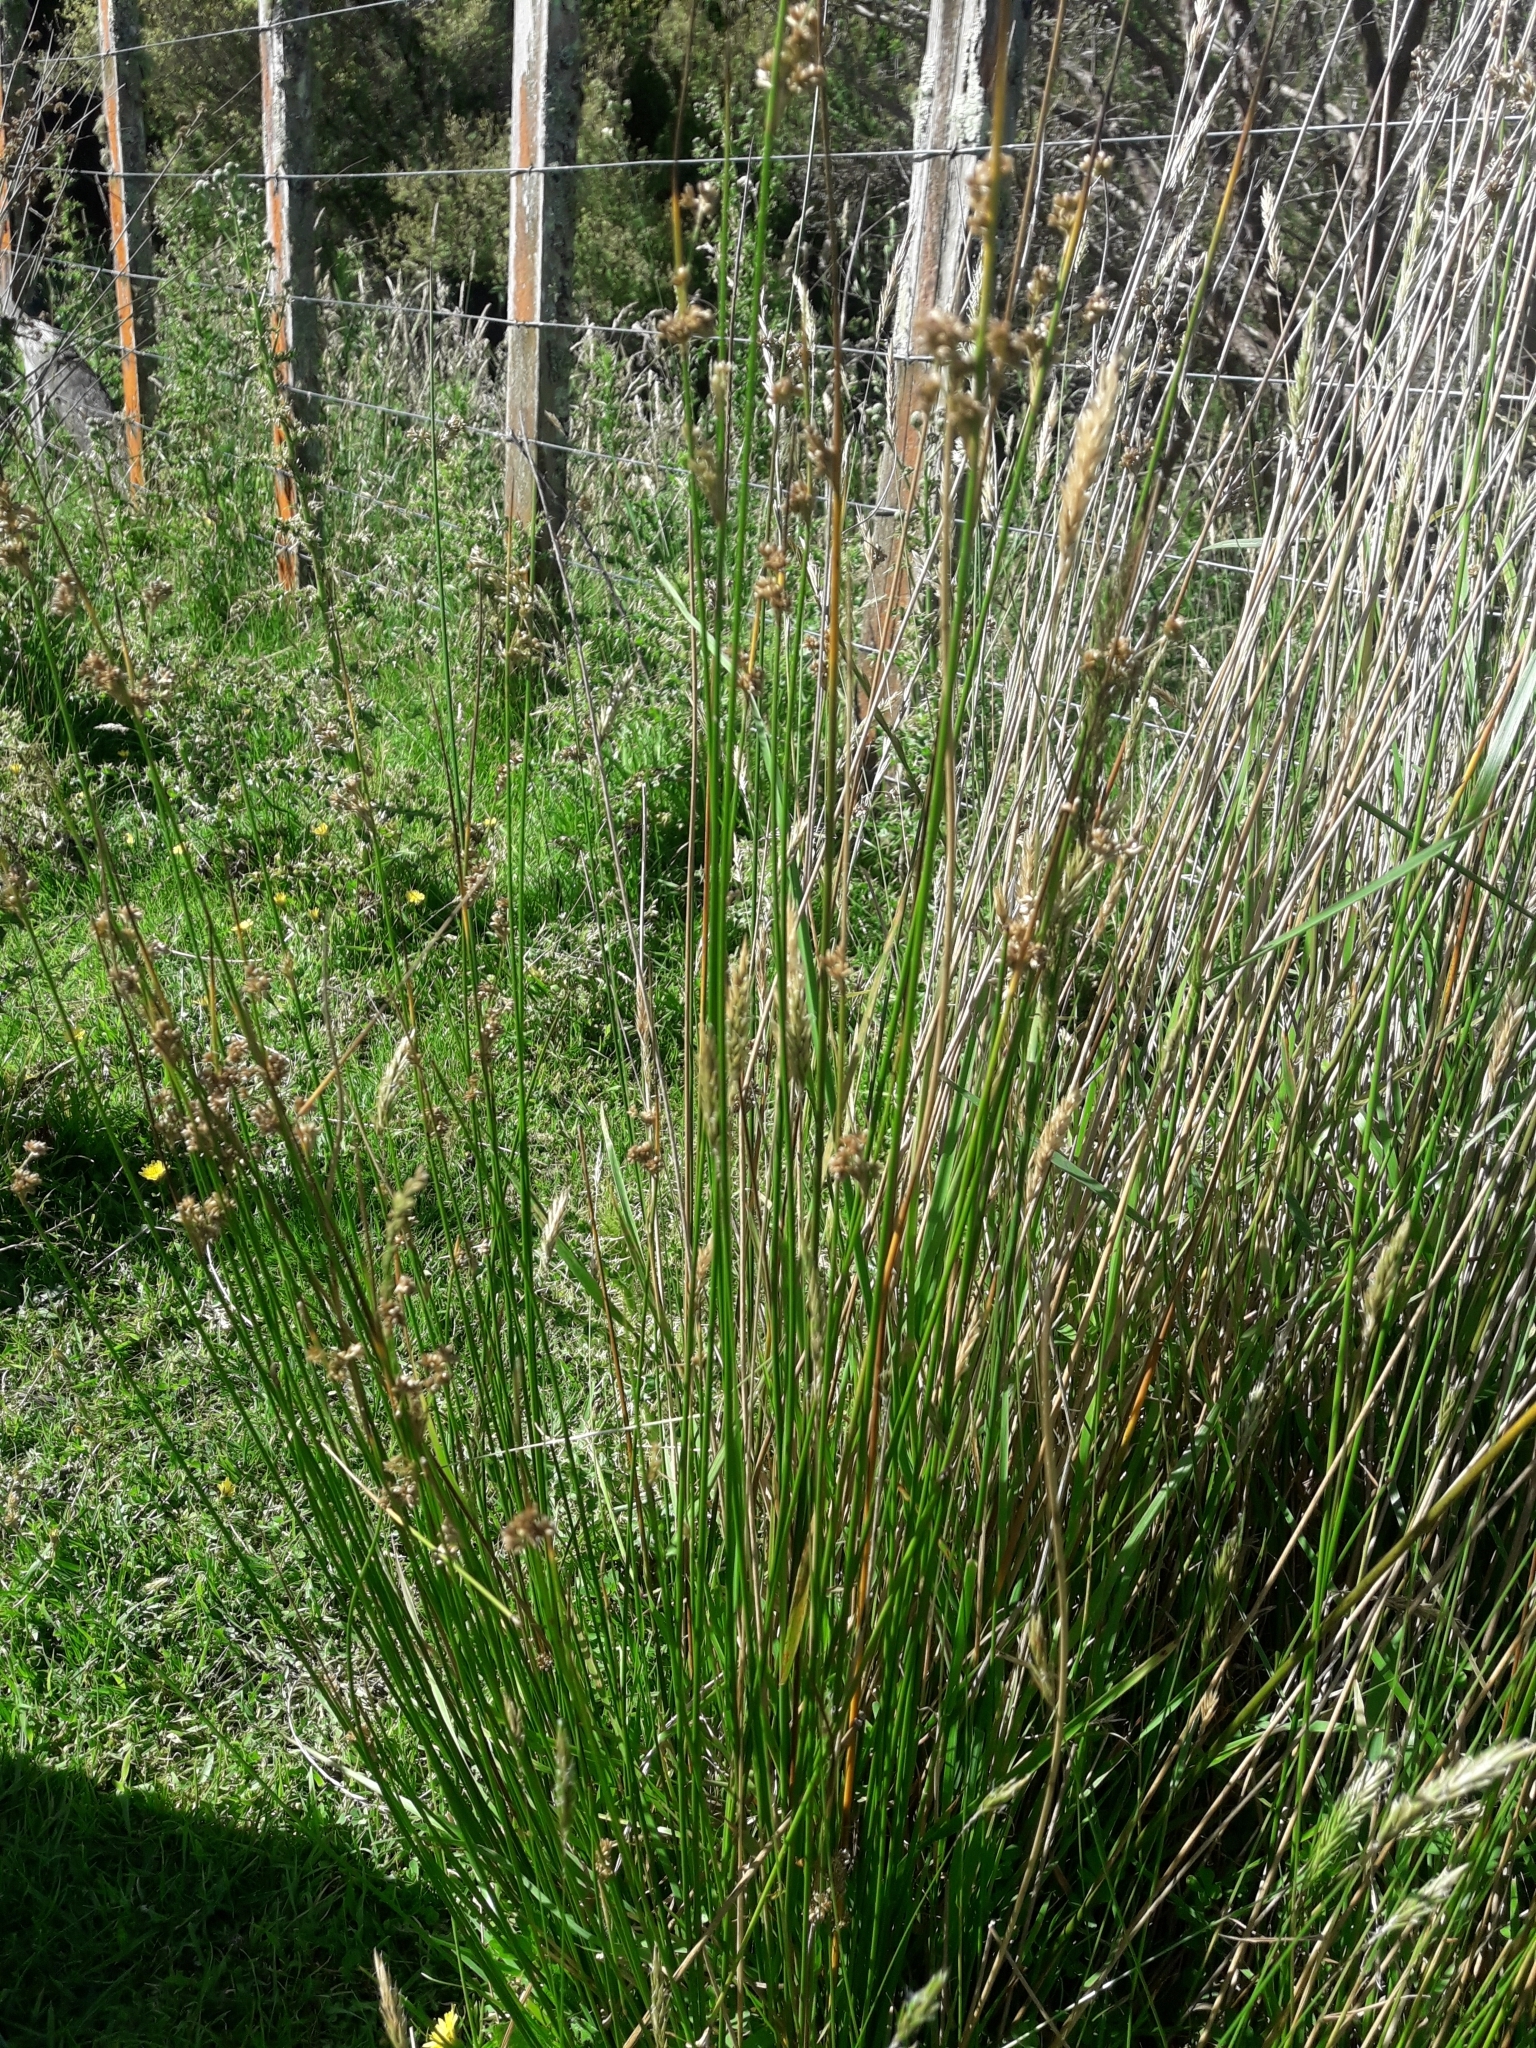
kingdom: Plantae
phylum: Tracheophyta
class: Liliopsida
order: Poales
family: Juncaceae
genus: Juncus
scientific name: Juncus edgariae
